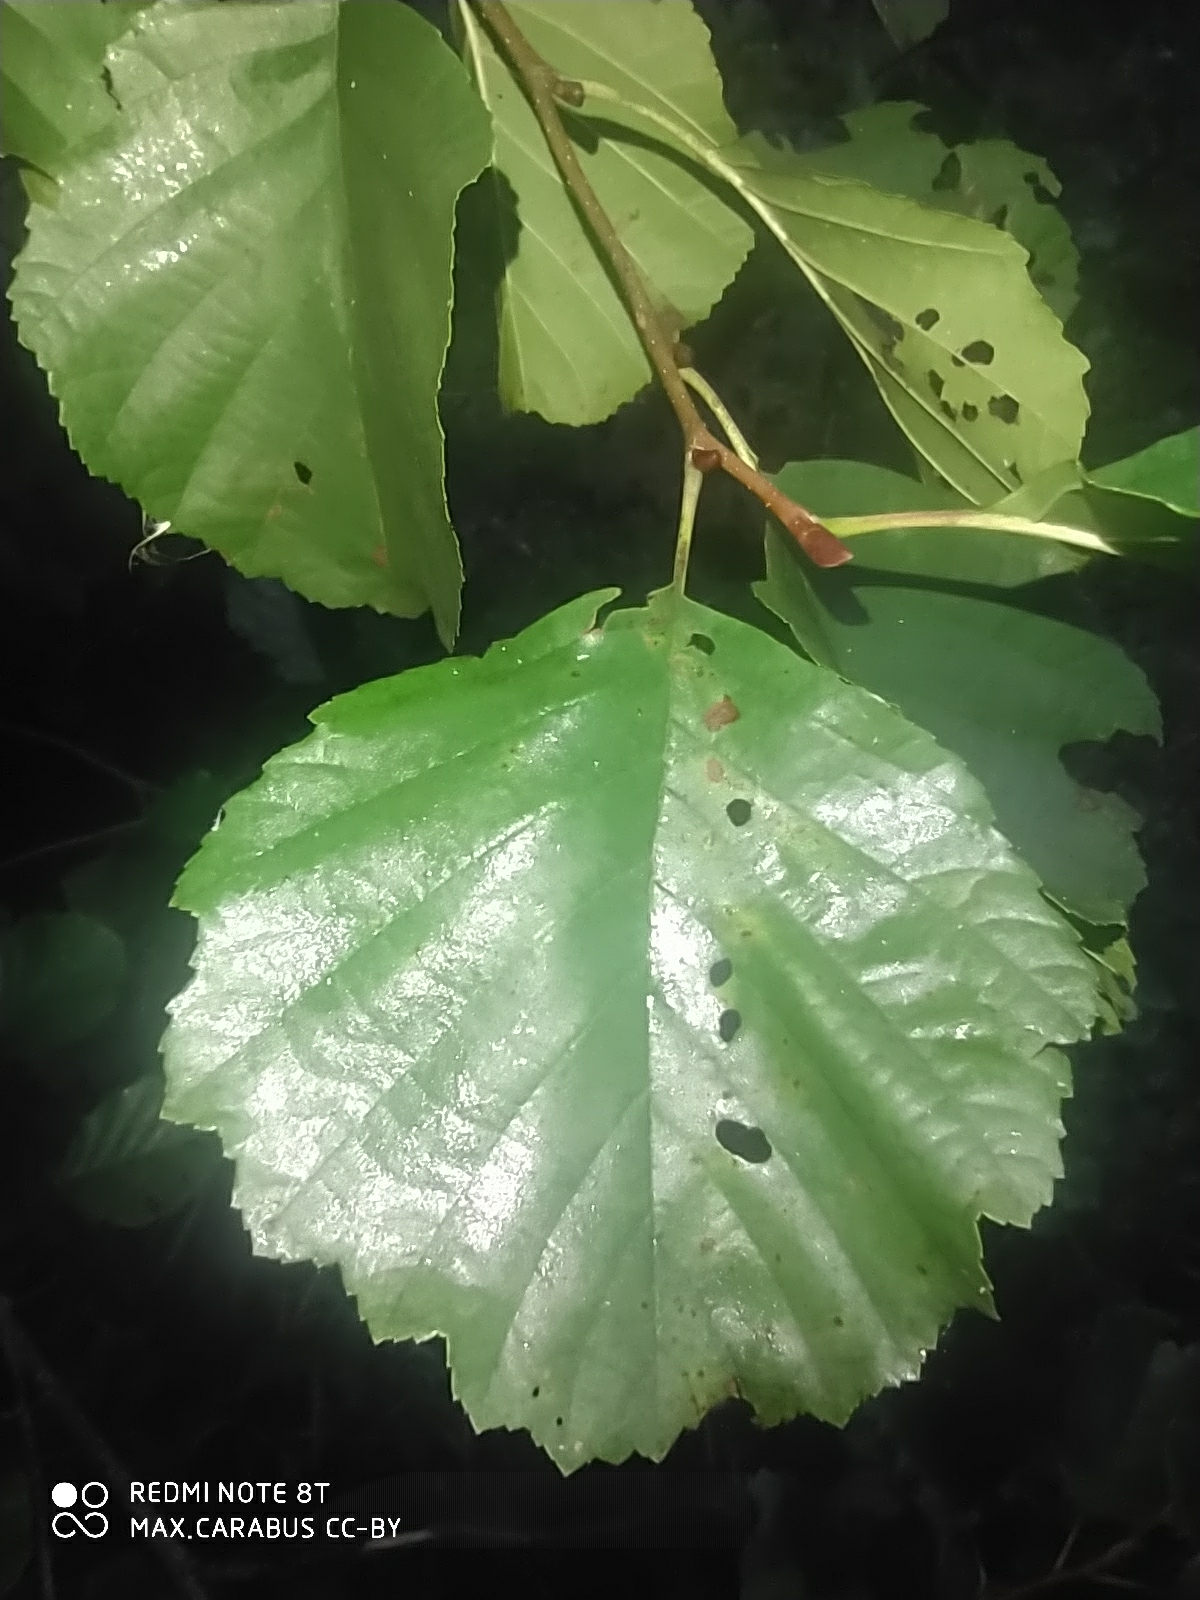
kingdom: Plantae
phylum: Tracheophyta
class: Magnoliopsida
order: Fagales
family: Betulaceae
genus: Alnus
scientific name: Alnus glutinosa
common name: Black alder
